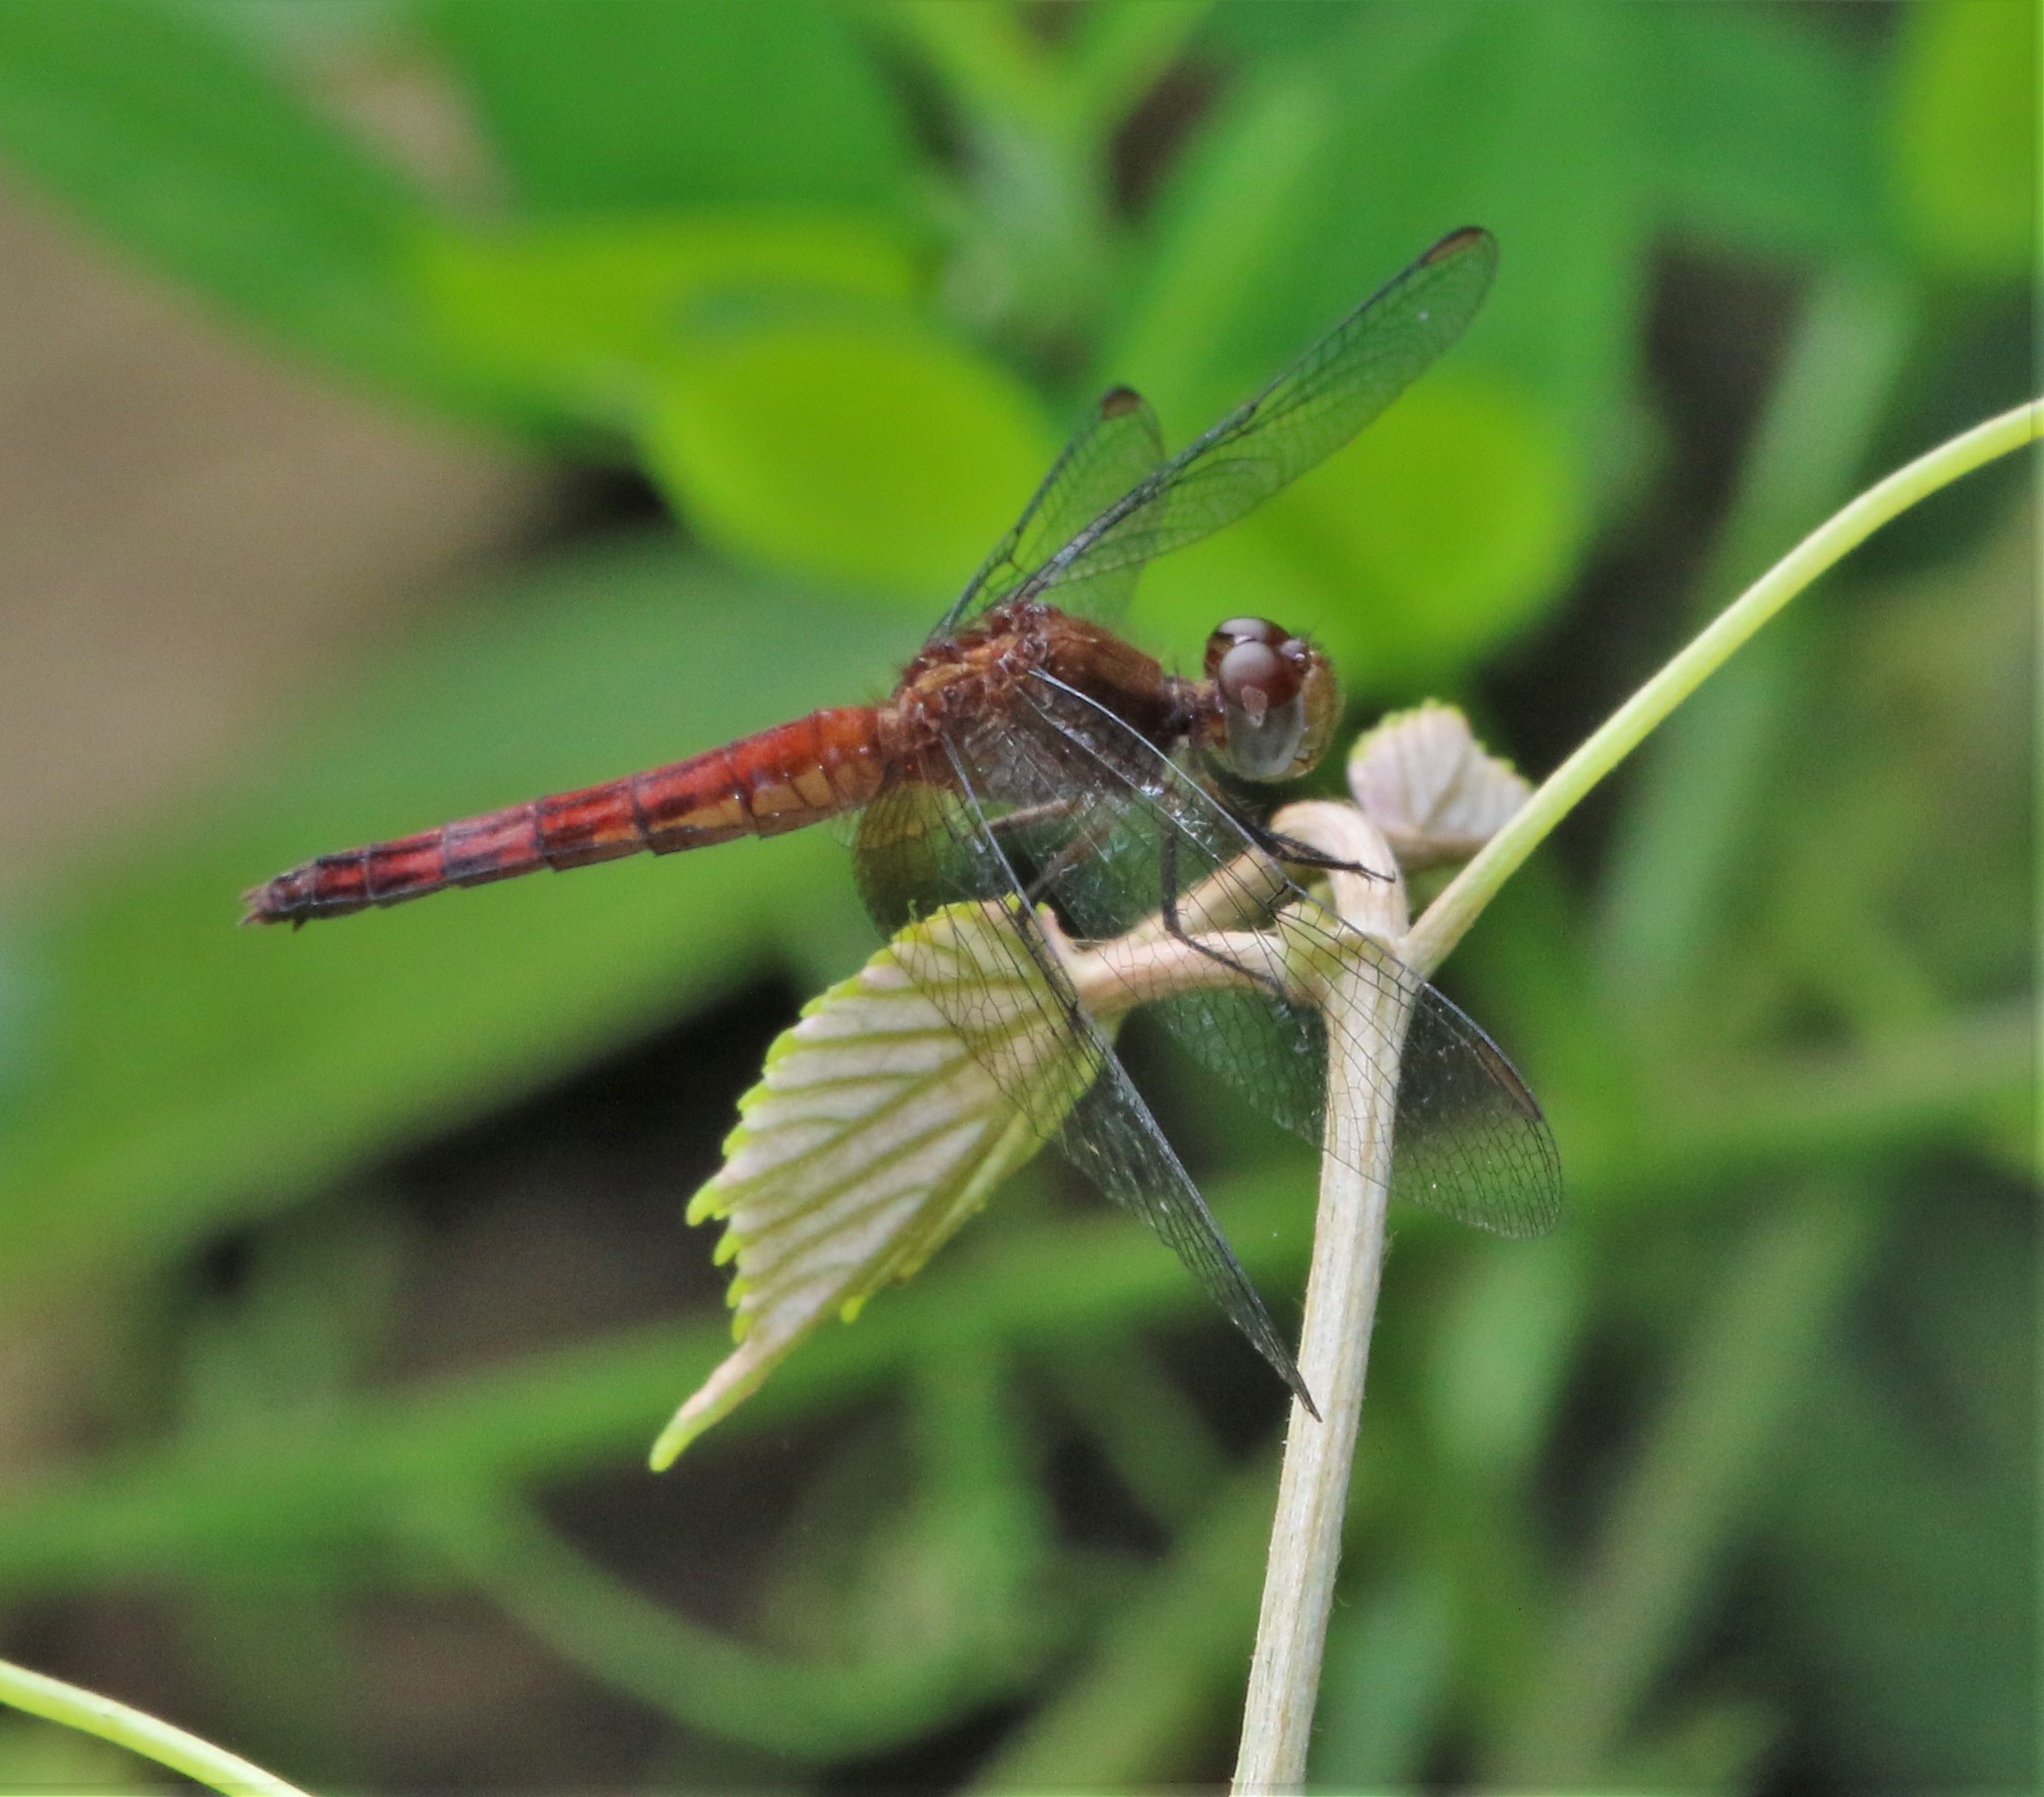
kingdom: Animalia
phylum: Arthropoda
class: Insecta
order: Odonata
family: Libellulidae
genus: Erythrodiplax
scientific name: Erythrodiplax fusca
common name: Red-faced dragonlet
